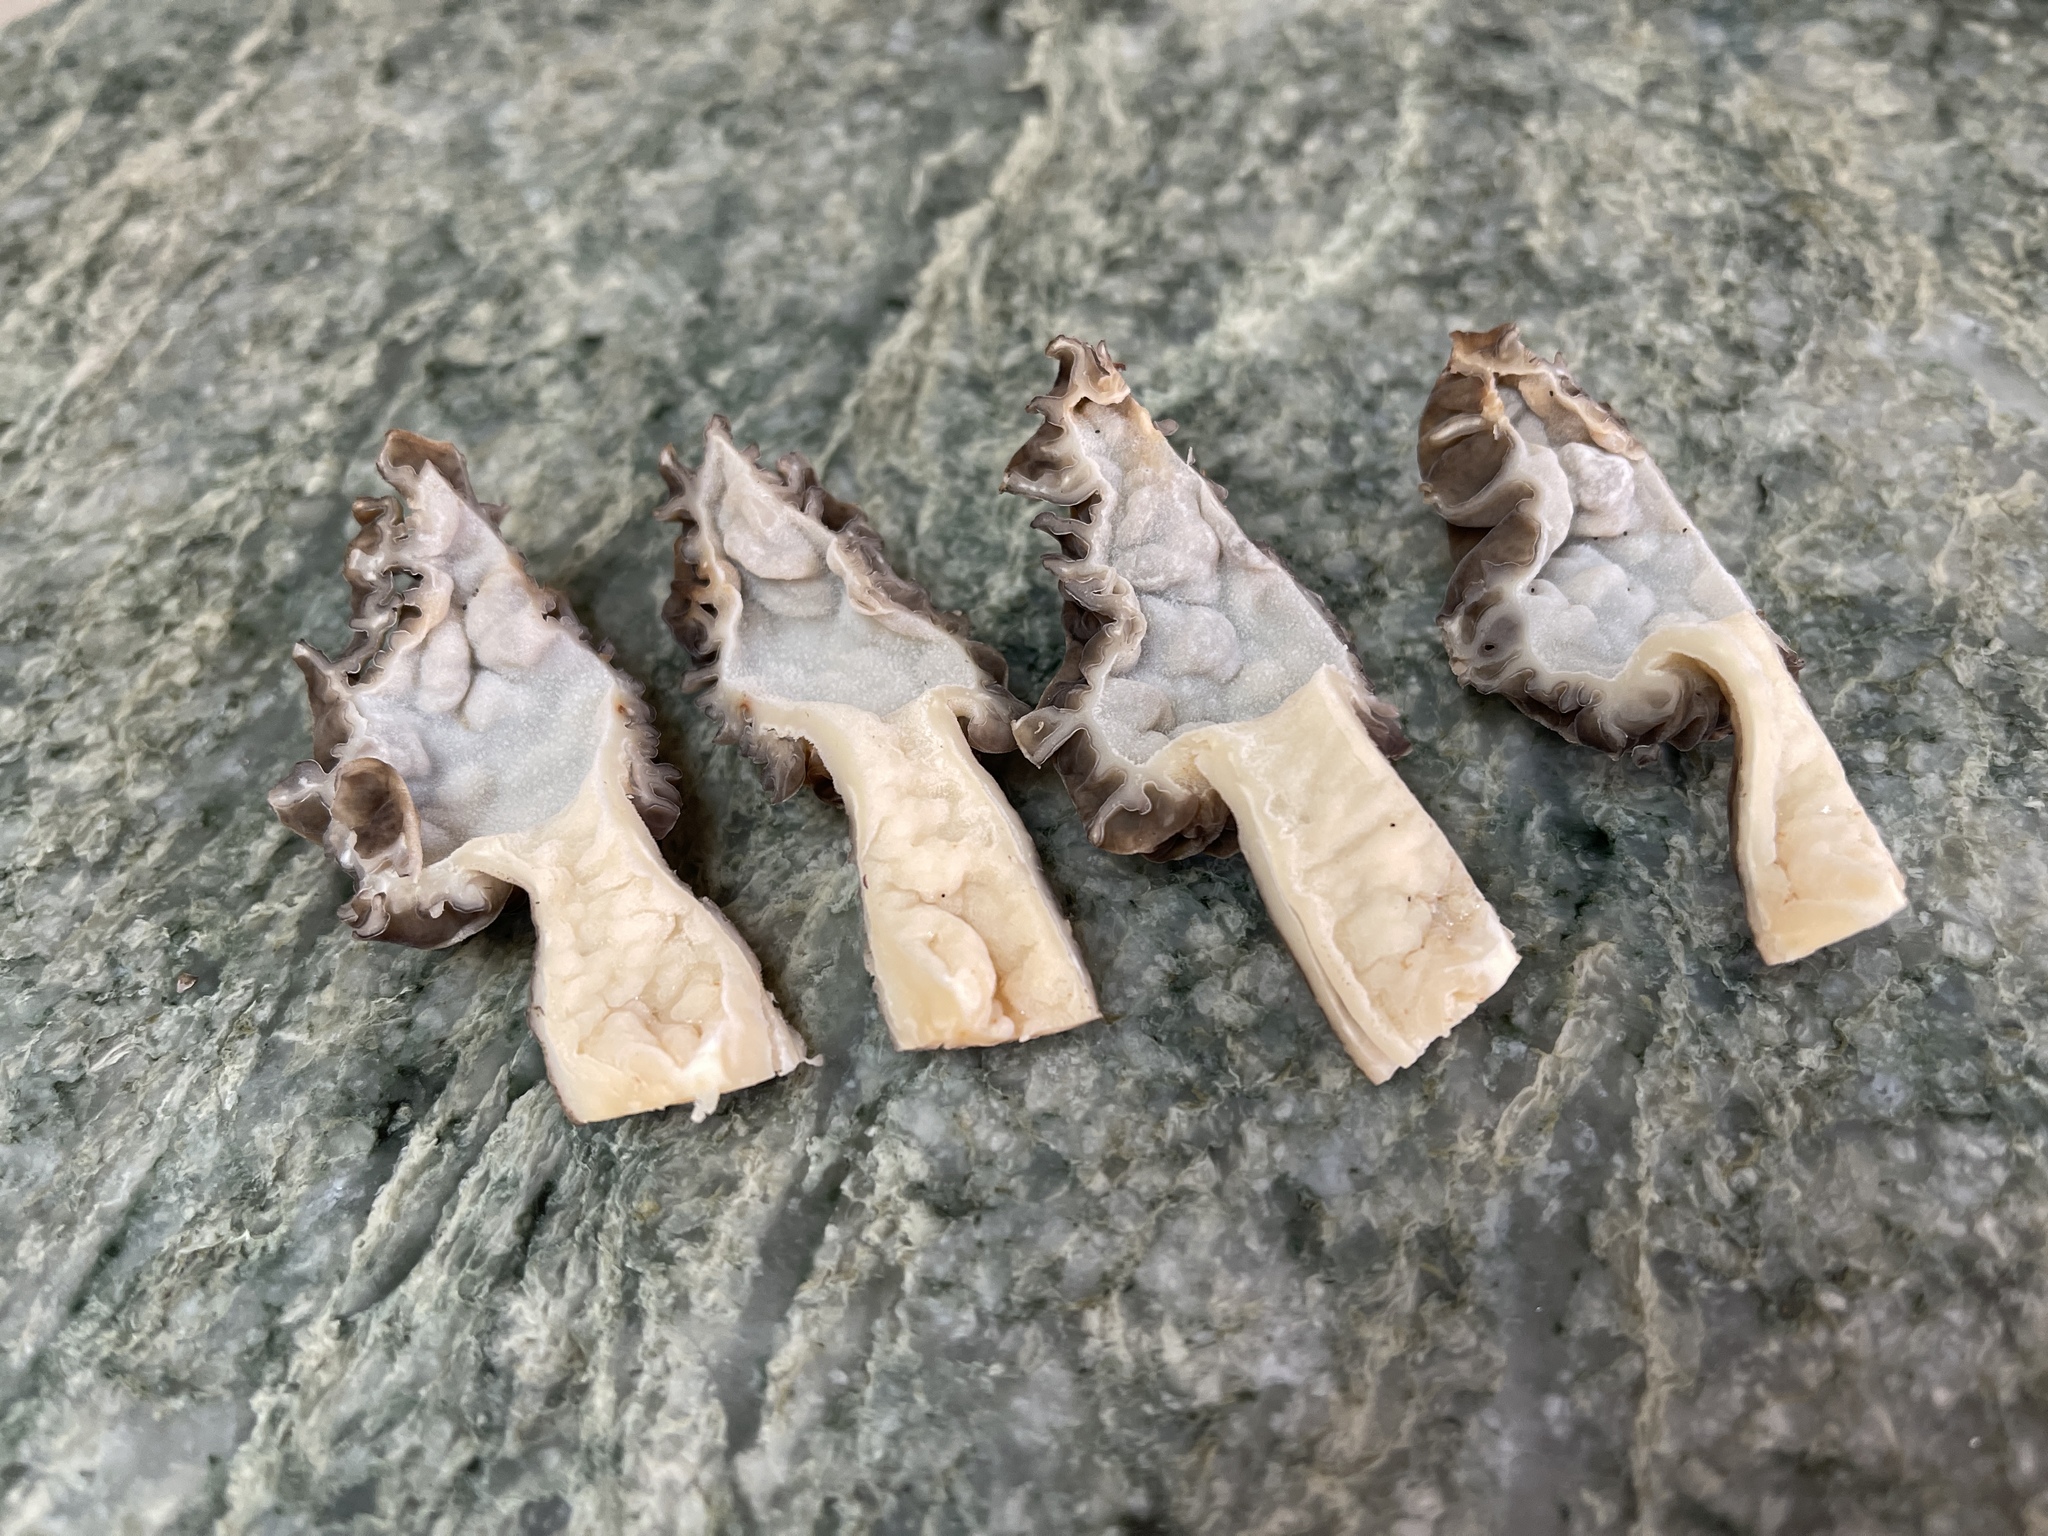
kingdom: Fungi
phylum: Ascomycota
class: Pezizomycetes
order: Pezizales
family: Morchellaceae
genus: Morchella
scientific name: Morchella rufobrunnea
